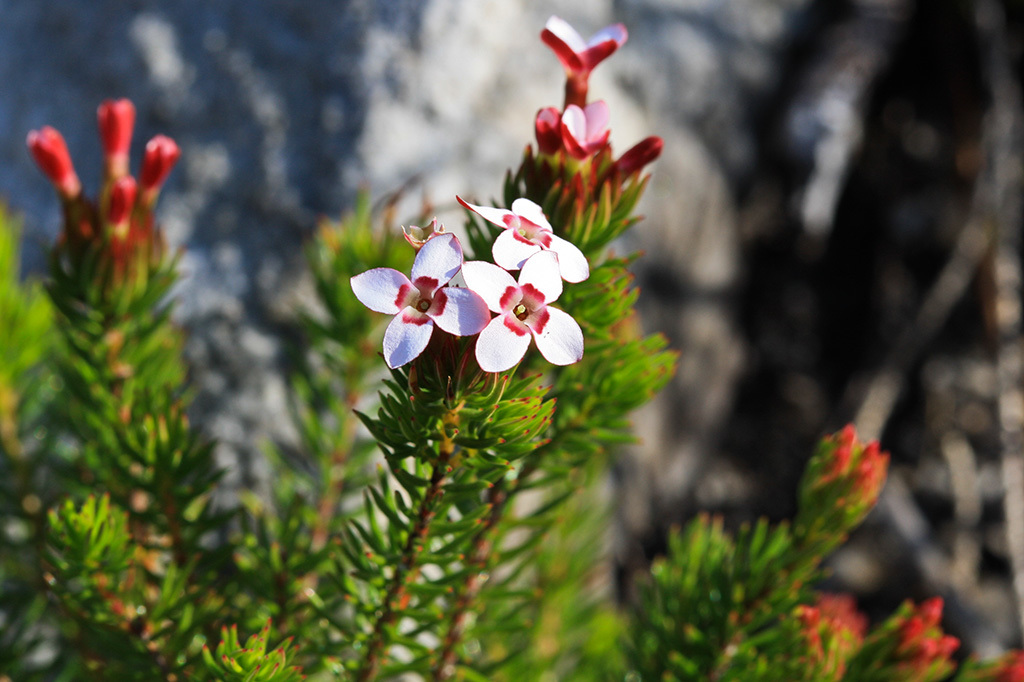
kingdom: Plantae
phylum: Tracheophyta
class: Magnoliopsida
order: Ericales
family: Ericaceae
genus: Erica
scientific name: Erica fastigiata
